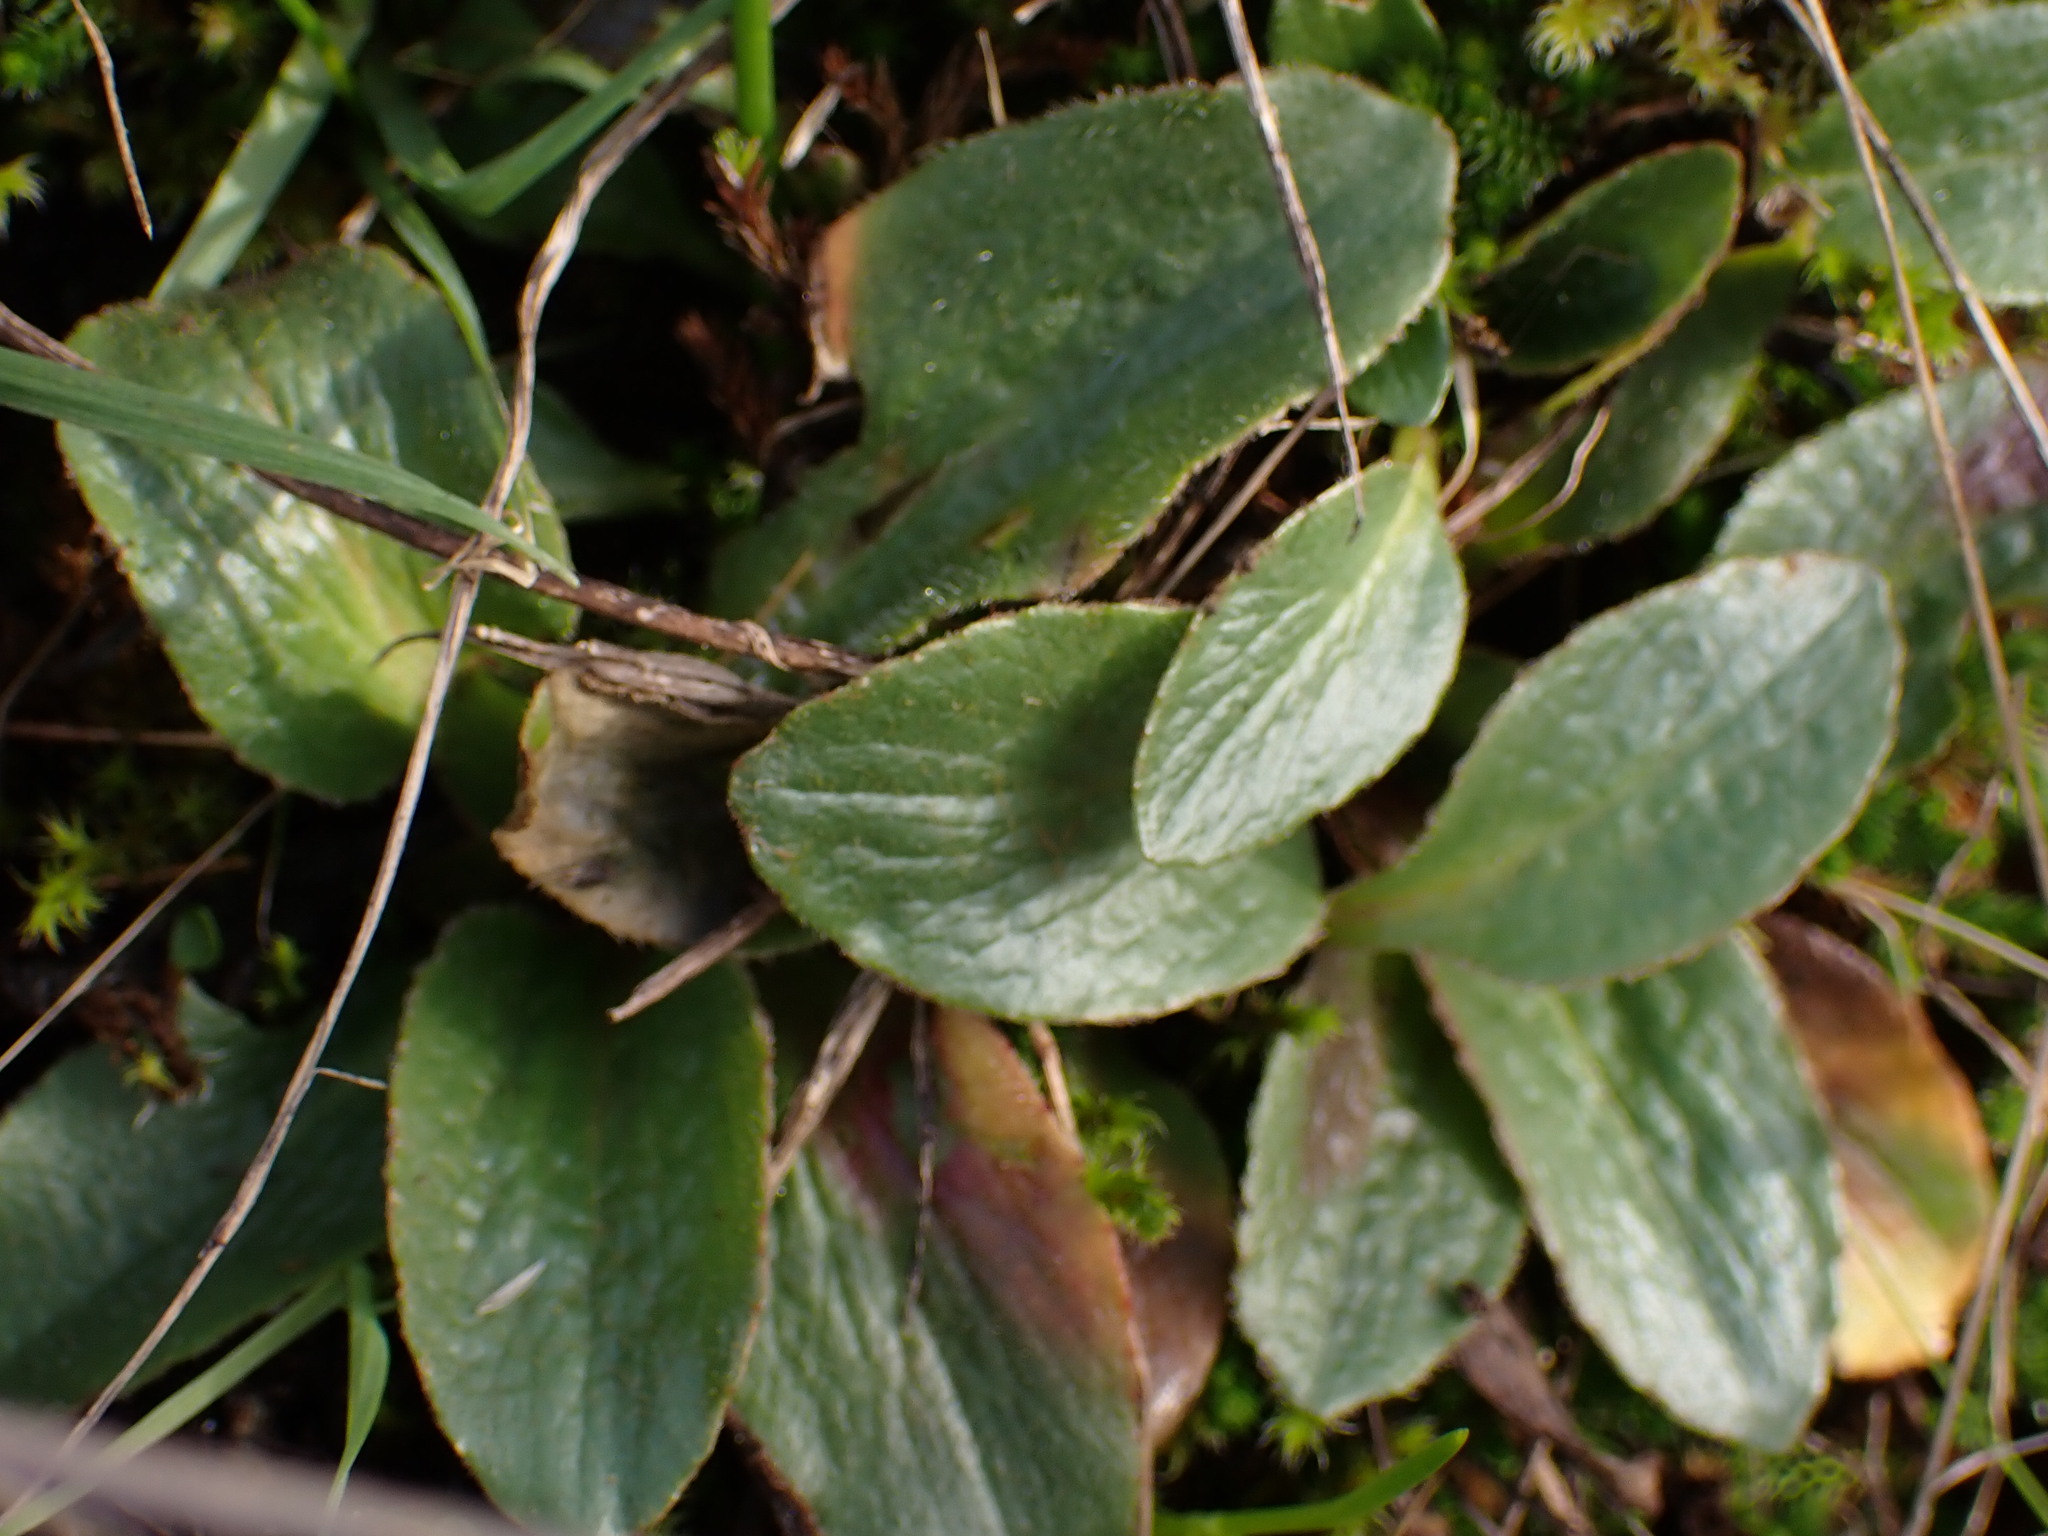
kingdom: Plantae
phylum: Tracheophyta
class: Magnoliopsida
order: Saxifragales
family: Saxifragaceae
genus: Micranthes
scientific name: Micranthes integrifolia
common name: Wholeleaf saxifrage
